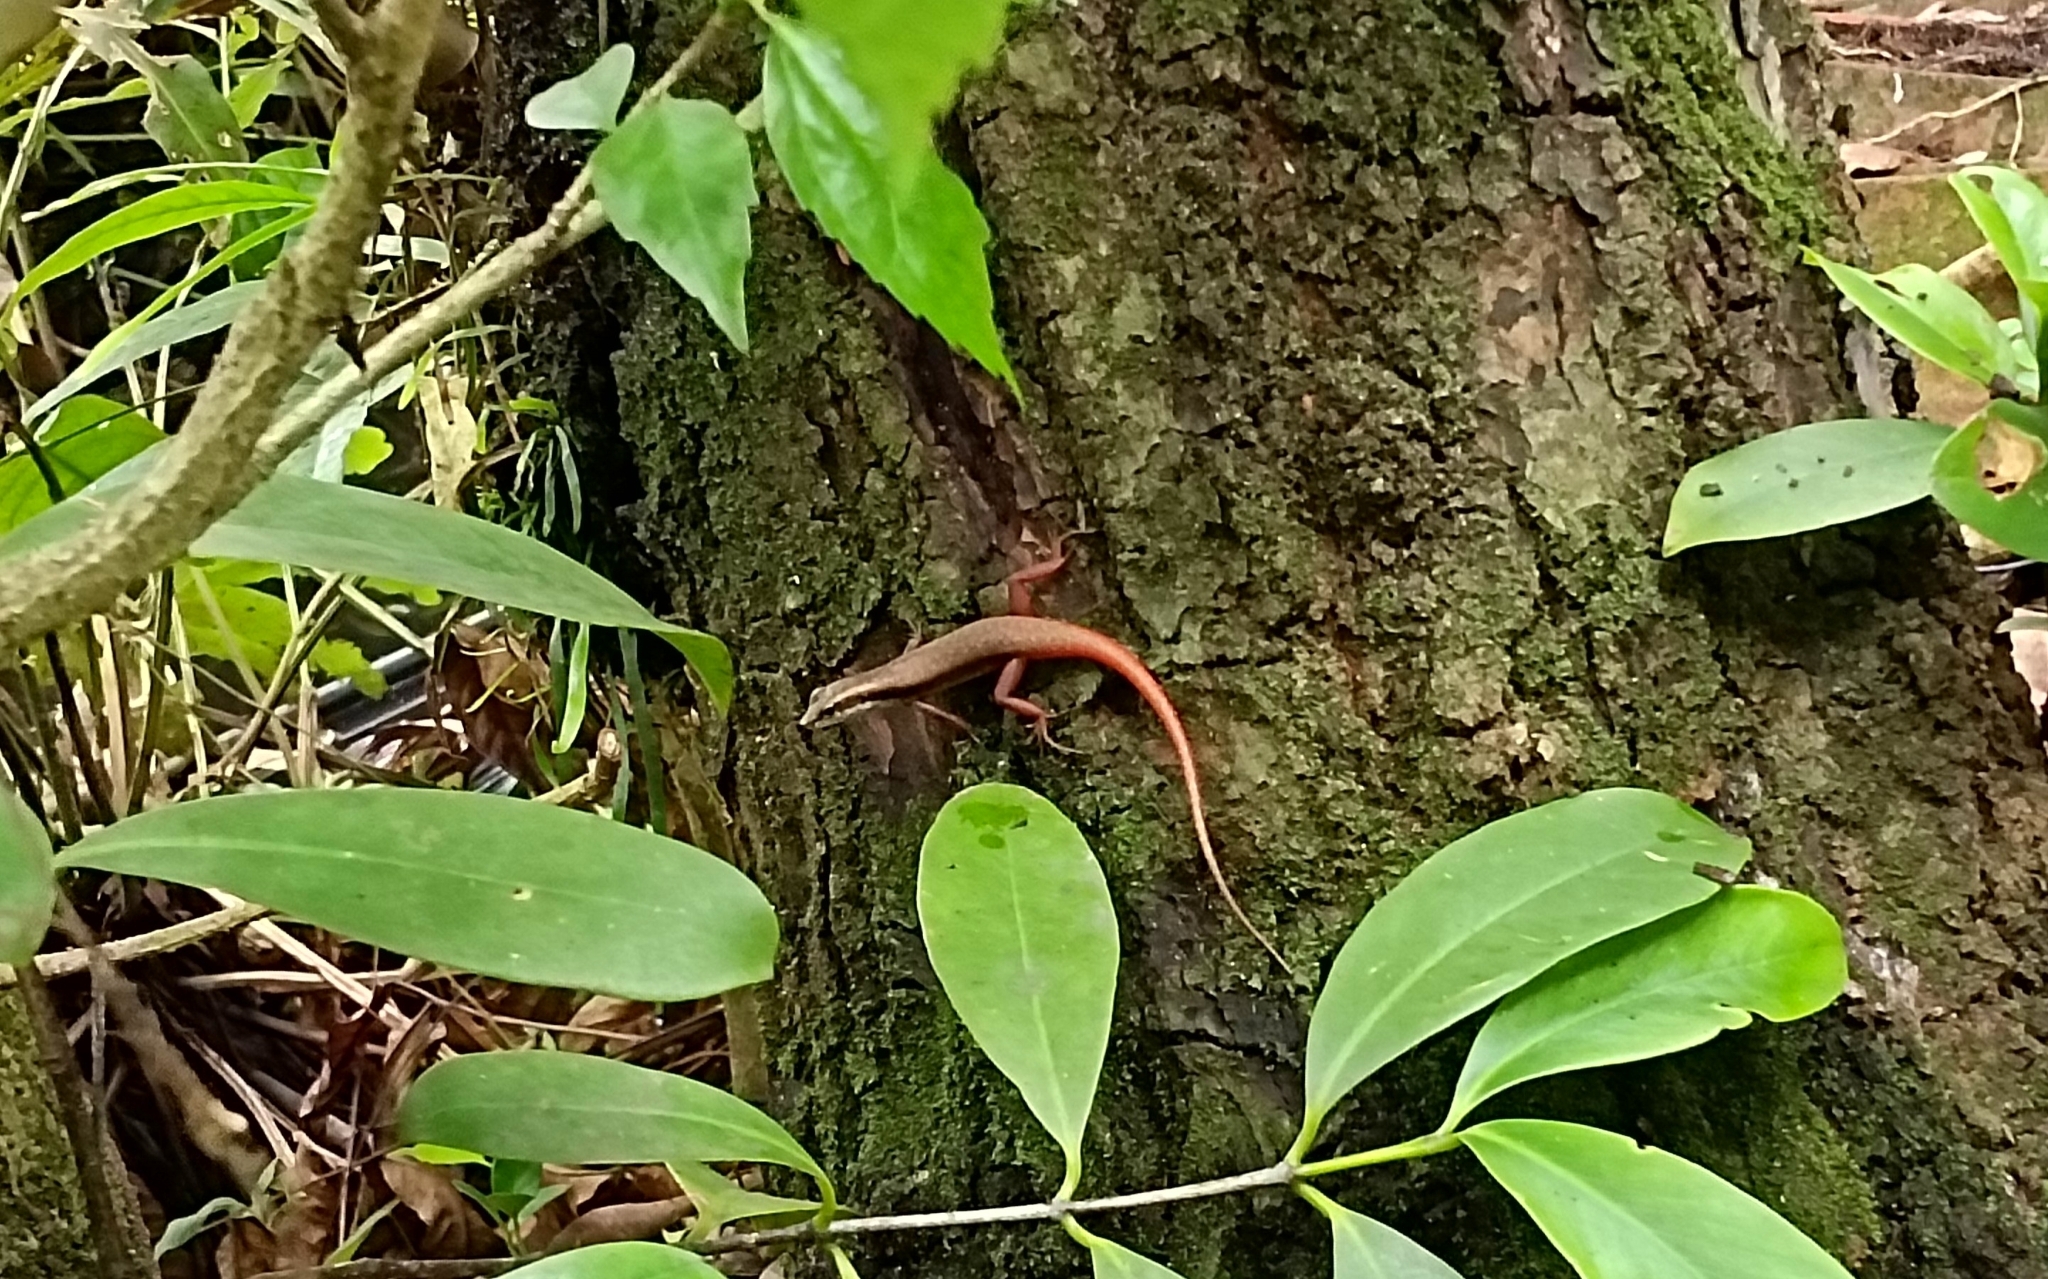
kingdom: Animalia
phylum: Chordata
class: Squamata
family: Scincidae
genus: Sphenomorphus
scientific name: Sphenomorphus dussumieri
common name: Dussumier's forest skink
